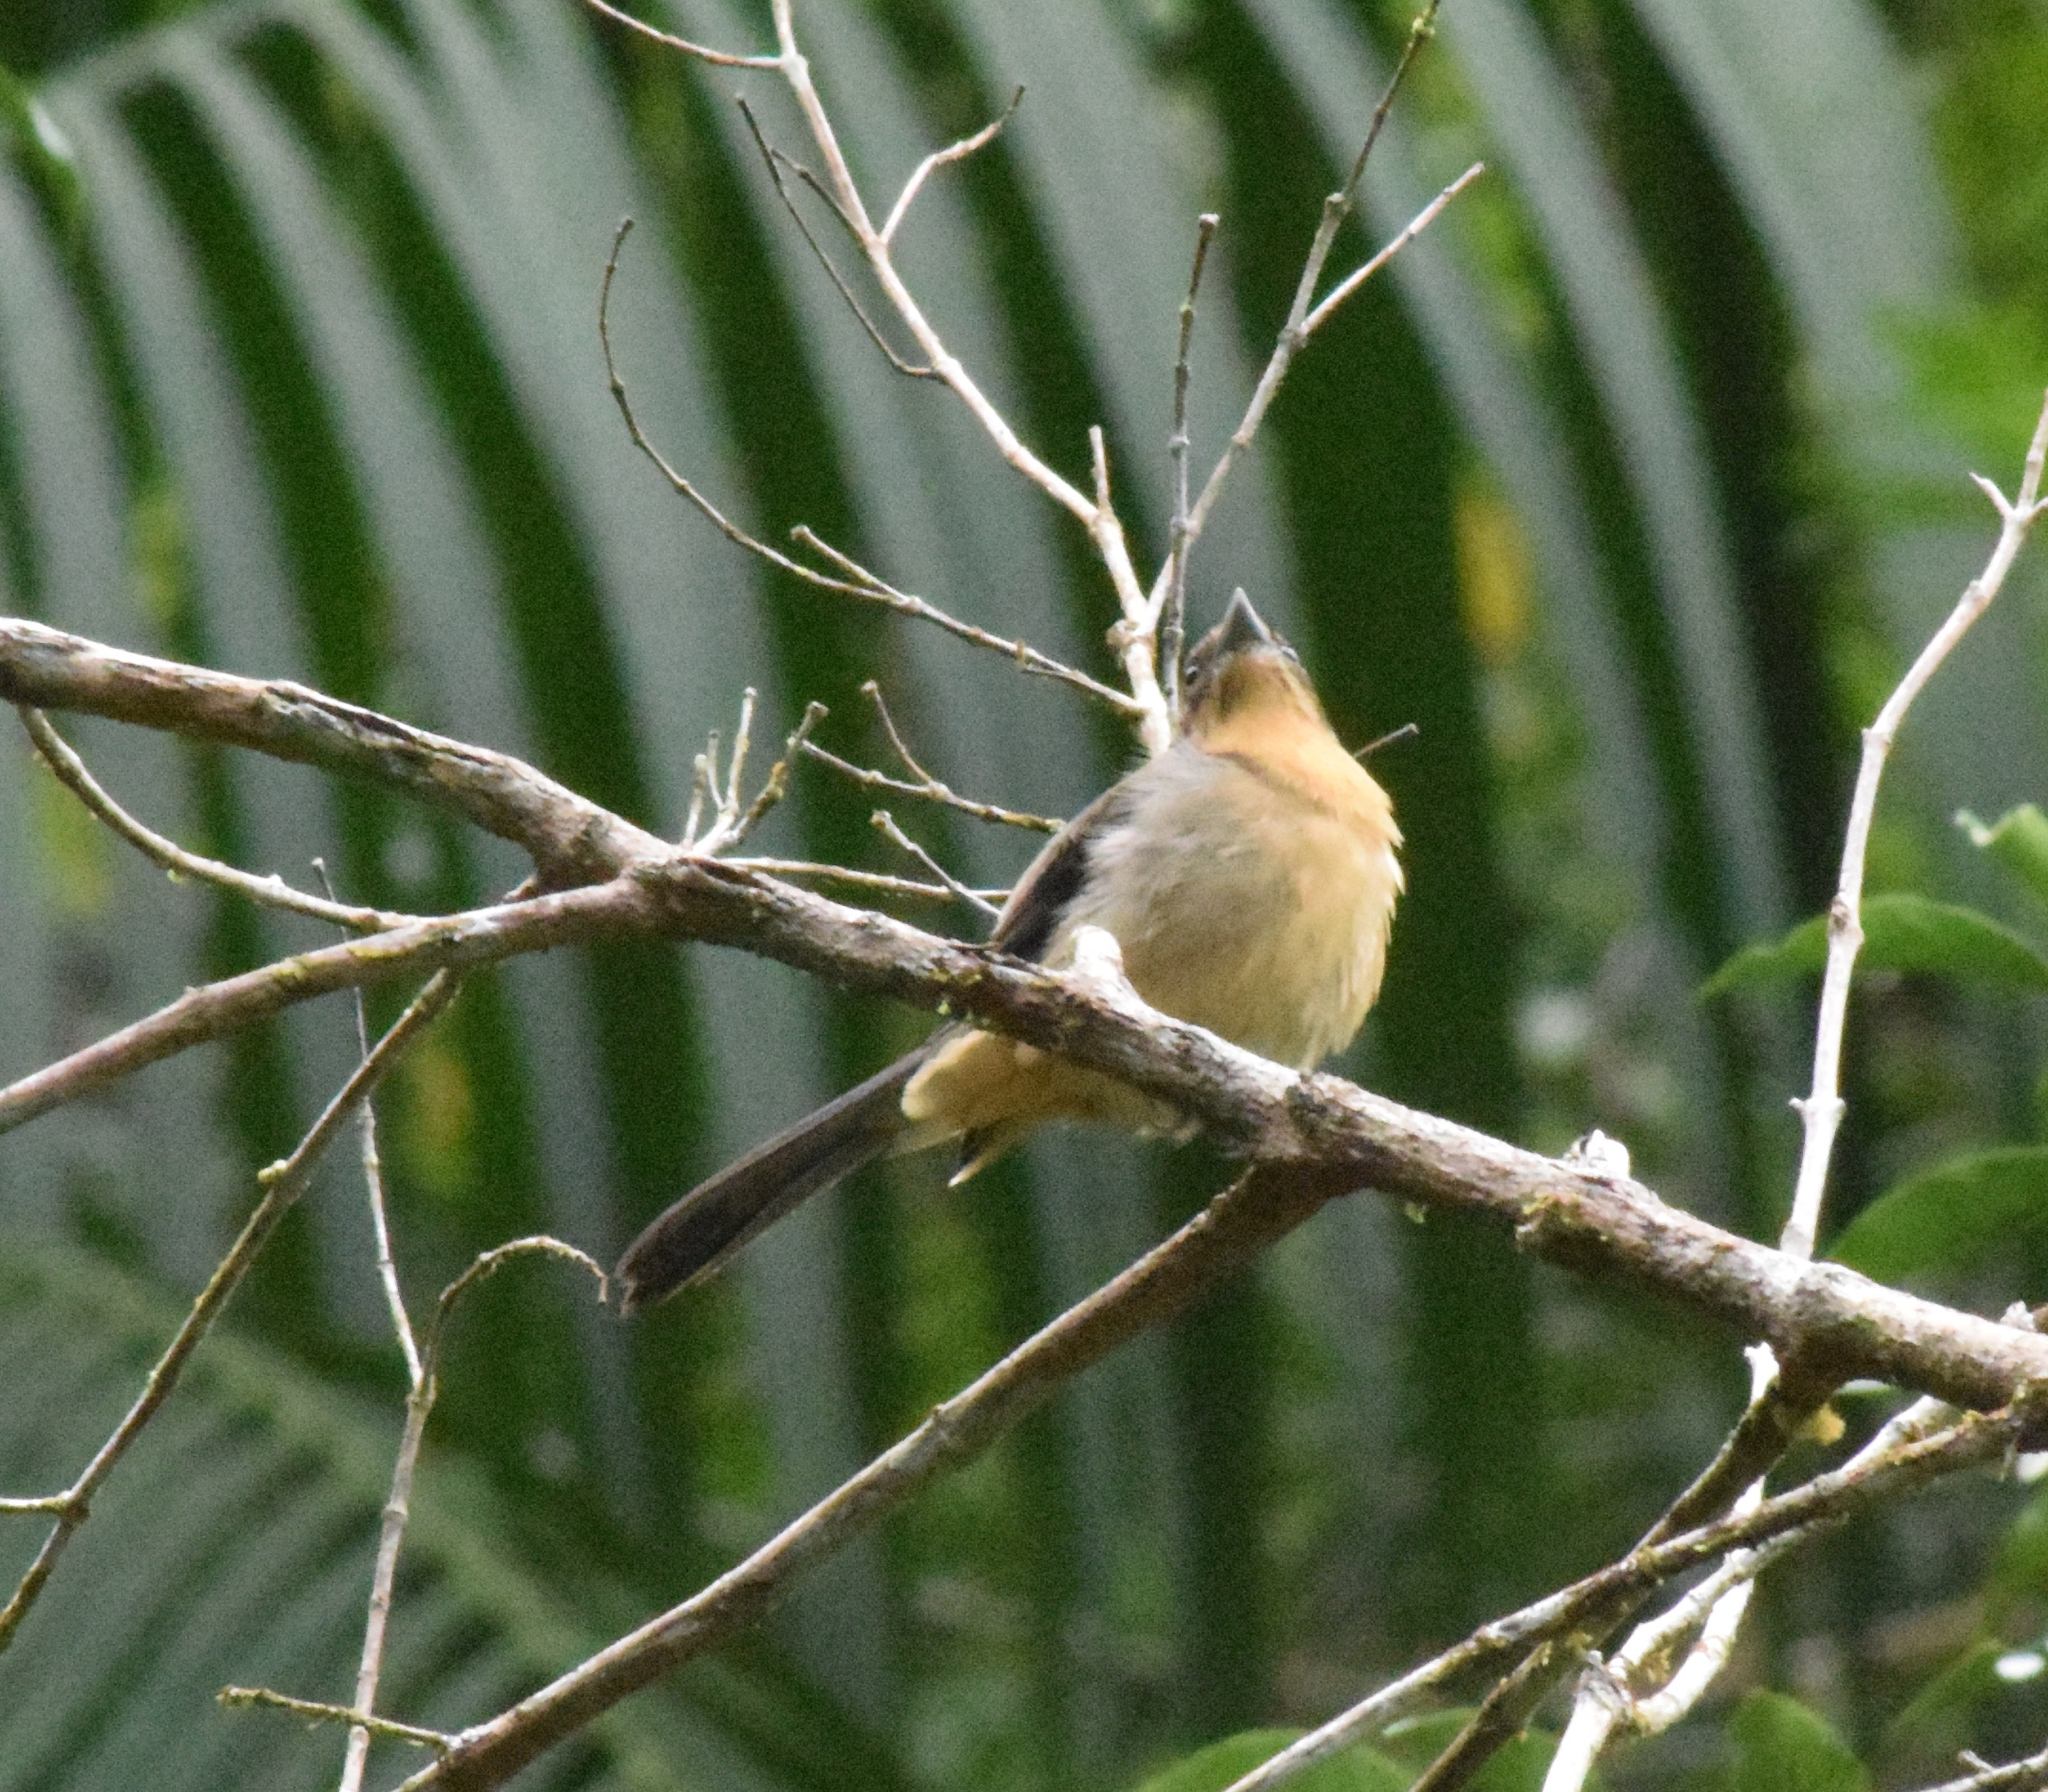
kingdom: Animalia
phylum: Chordata
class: Aves
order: Passeriformes
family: Thraupidae
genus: Trichothraupis
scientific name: Trichothraupis melanops
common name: Black-goggled tanager
